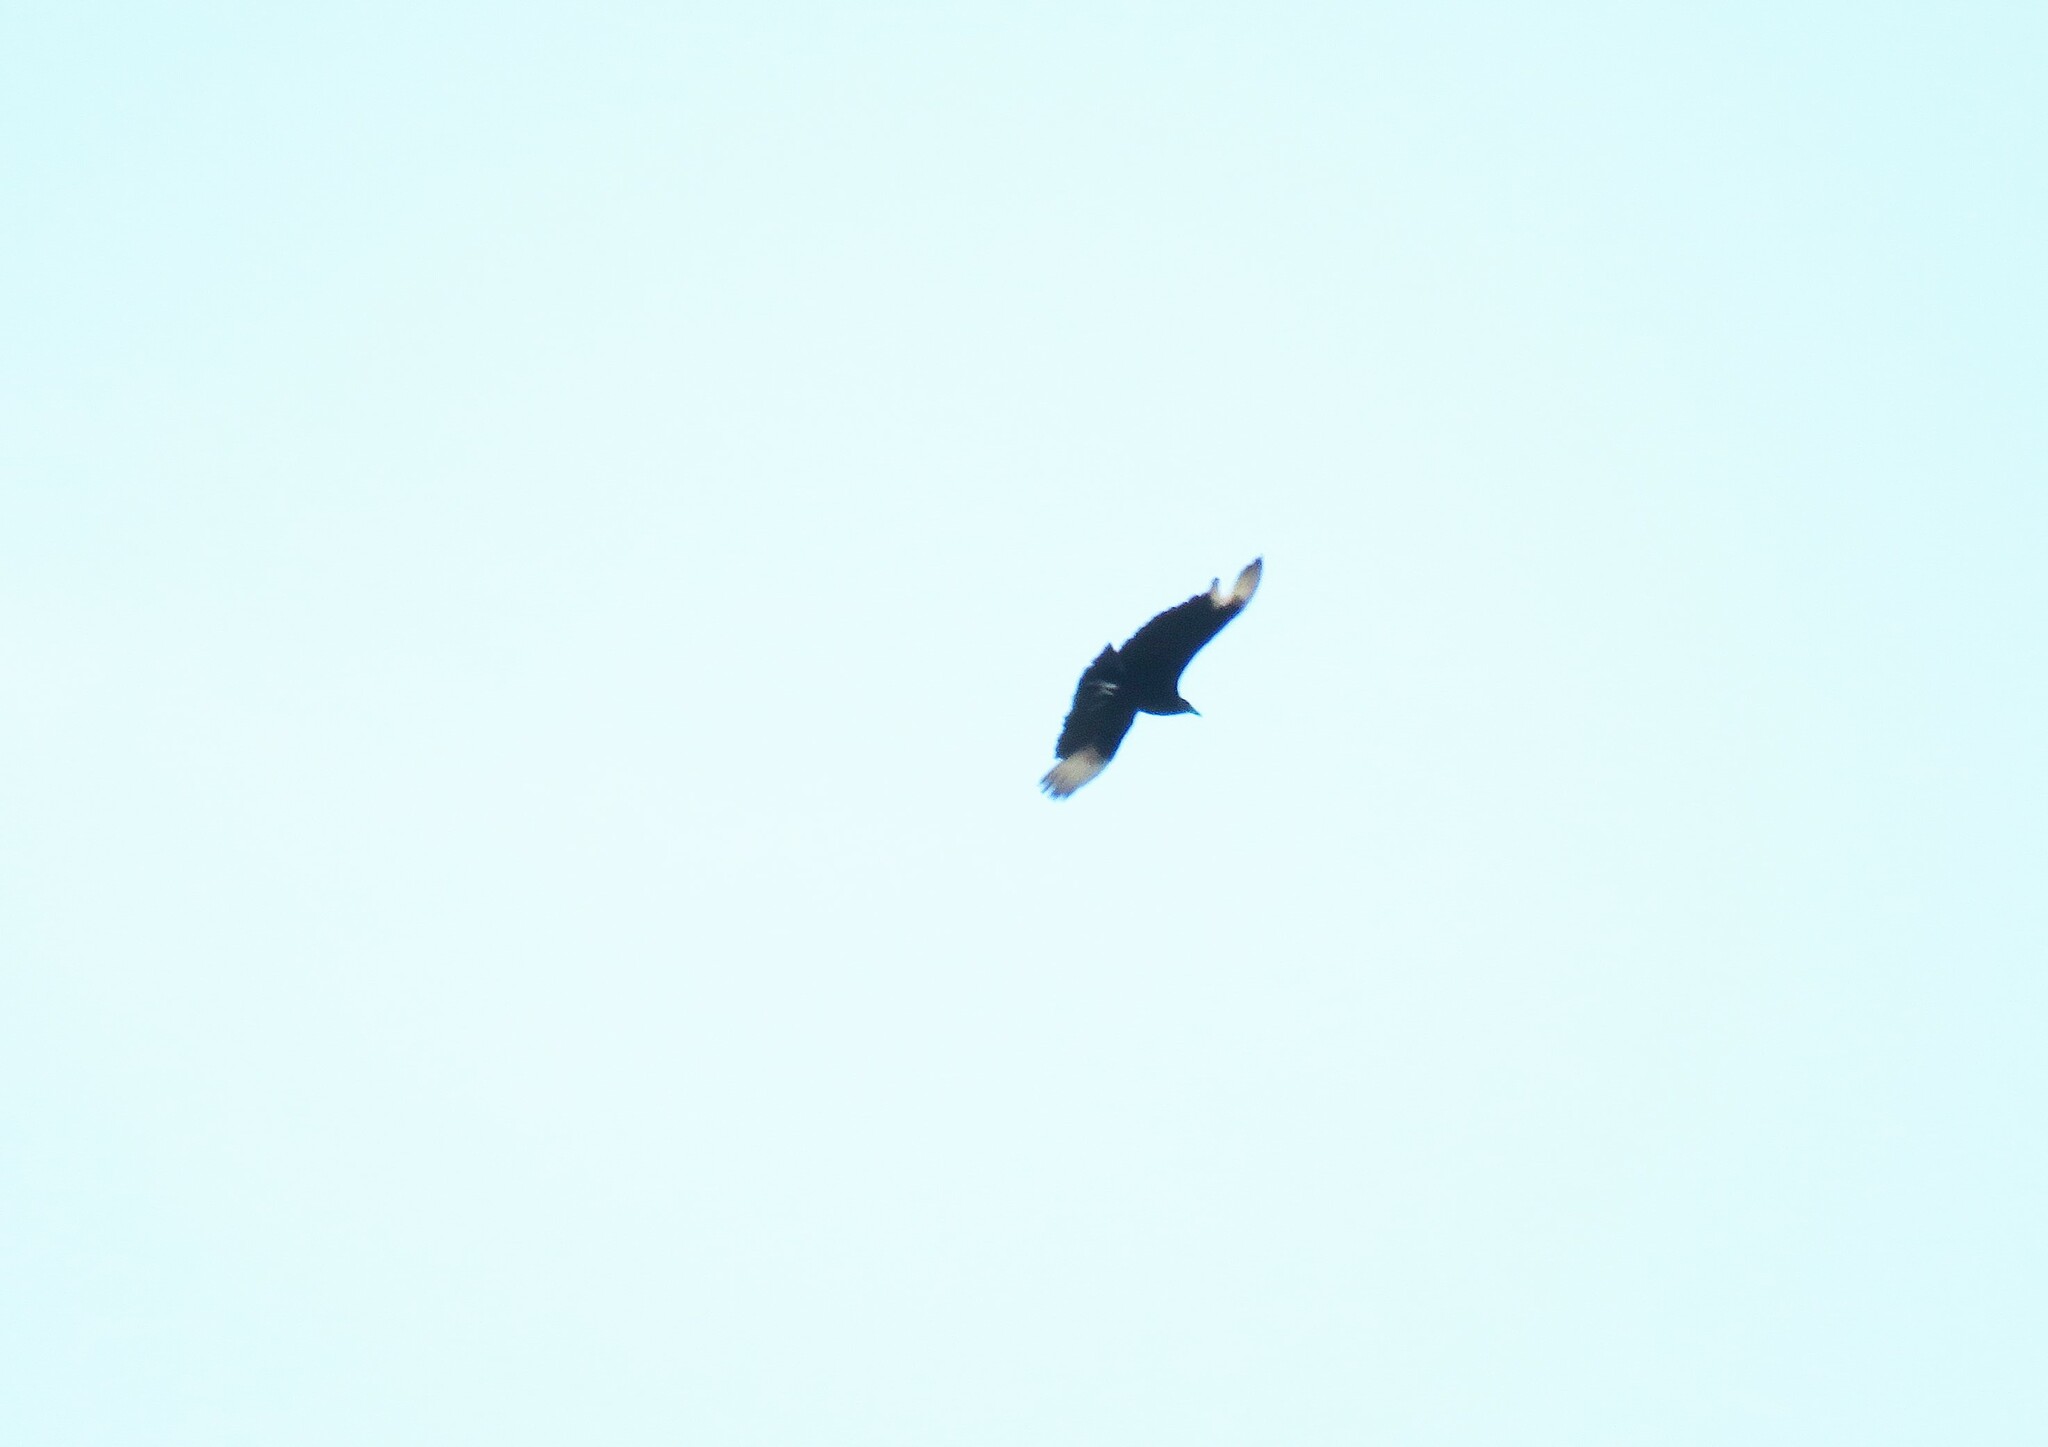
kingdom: Animalia
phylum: Chordata
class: Aves
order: Accipitriformes
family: Cathartidae
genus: Coragyps
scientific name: Coragyps atratus
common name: Black vulture
